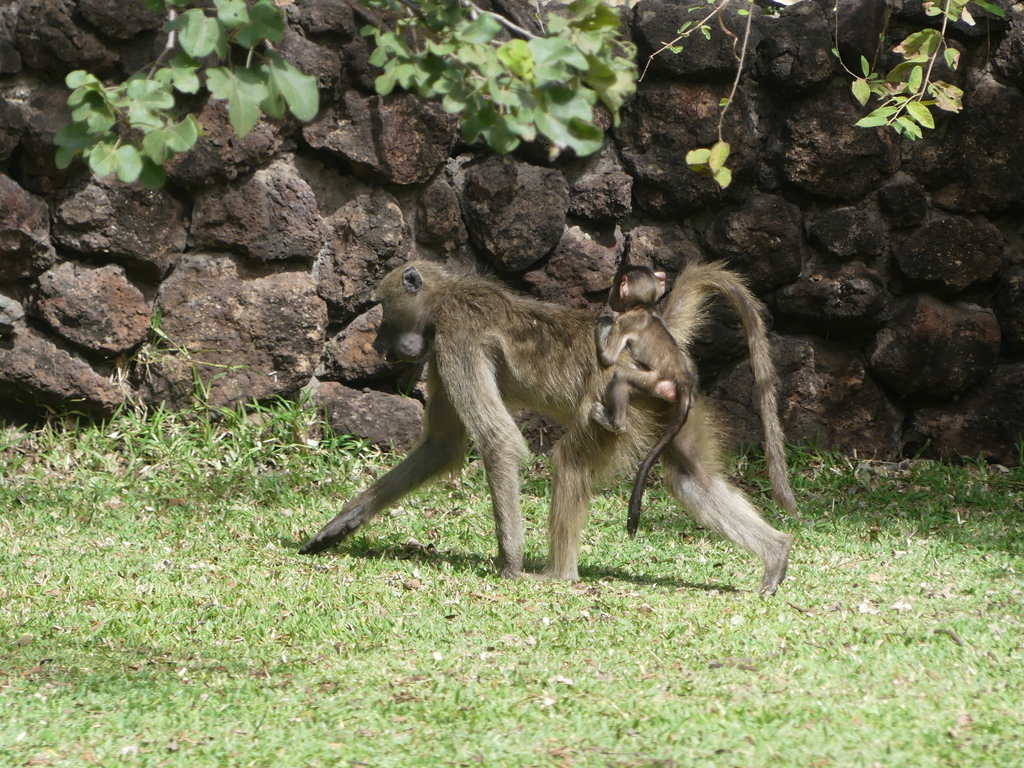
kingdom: Animalia
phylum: Chordata
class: Mammalia
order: Primates
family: Cercopithecidae
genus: Papio
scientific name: Papio ursinus
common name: Chacma baboon
